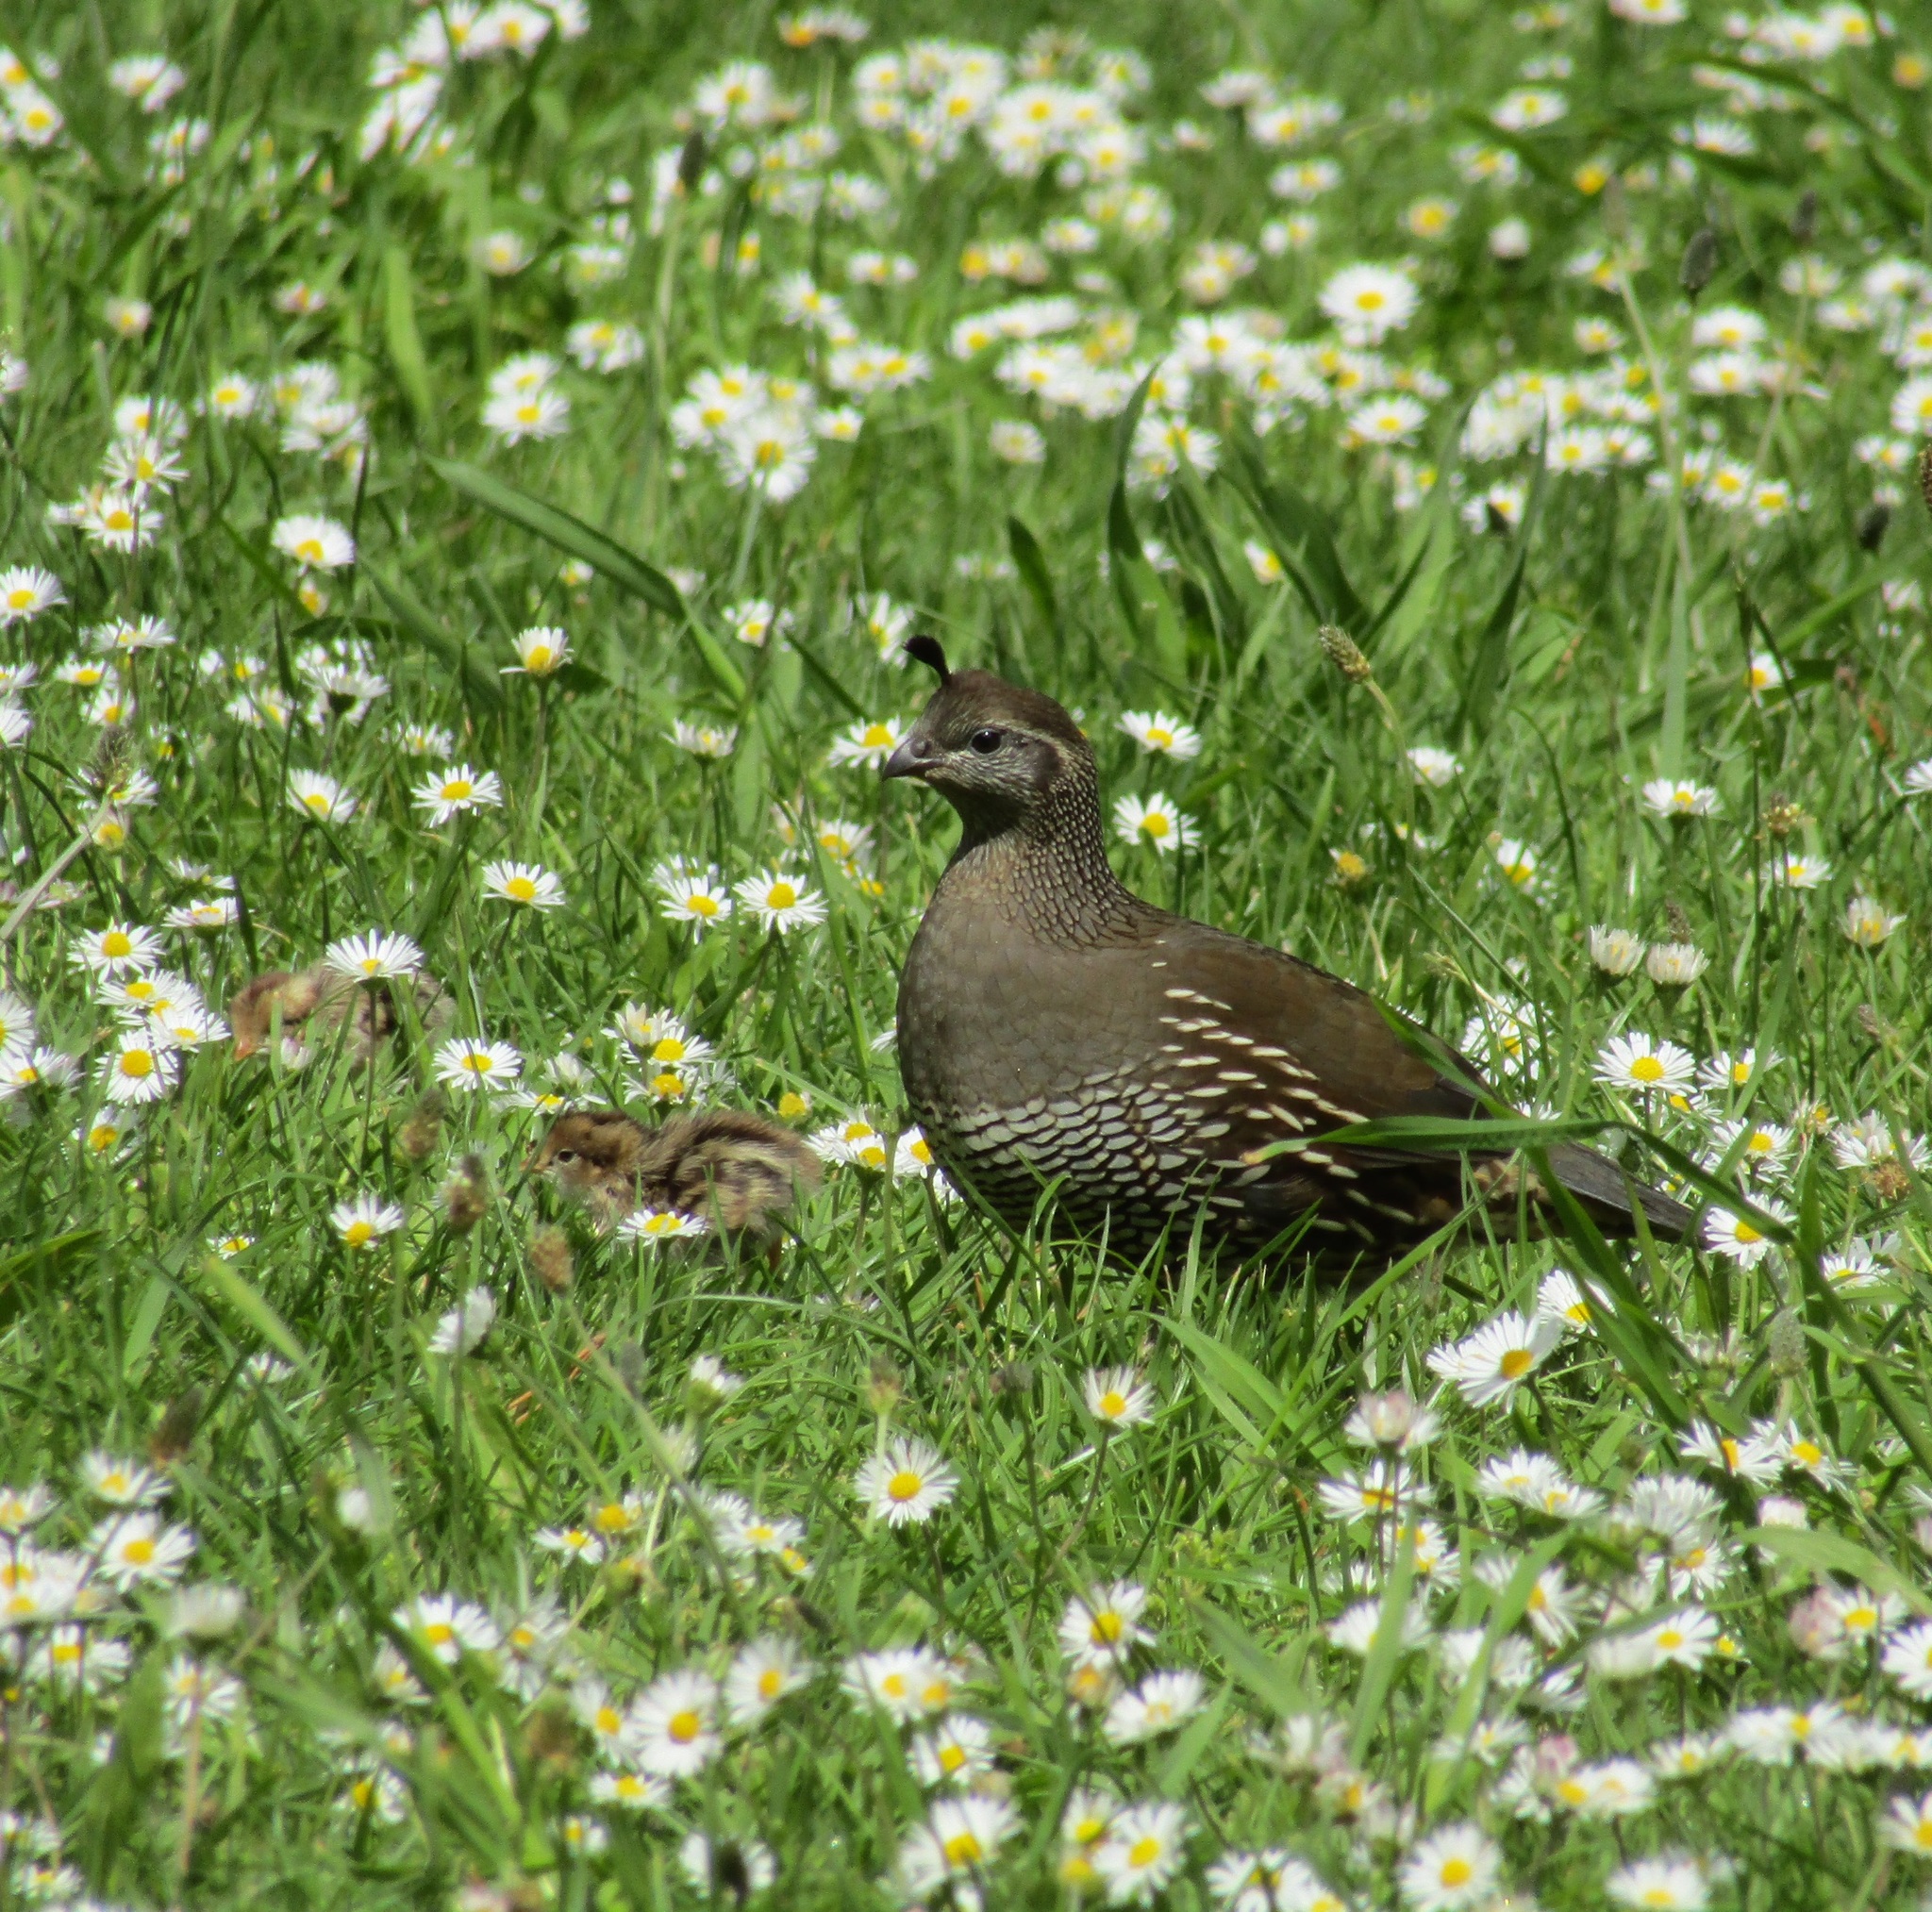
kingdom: Animalia
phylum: Chordata
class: Aves
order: Galliformes
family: Odontophoridae
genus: Callipepla
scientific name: Callipepla californica
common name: California quail
